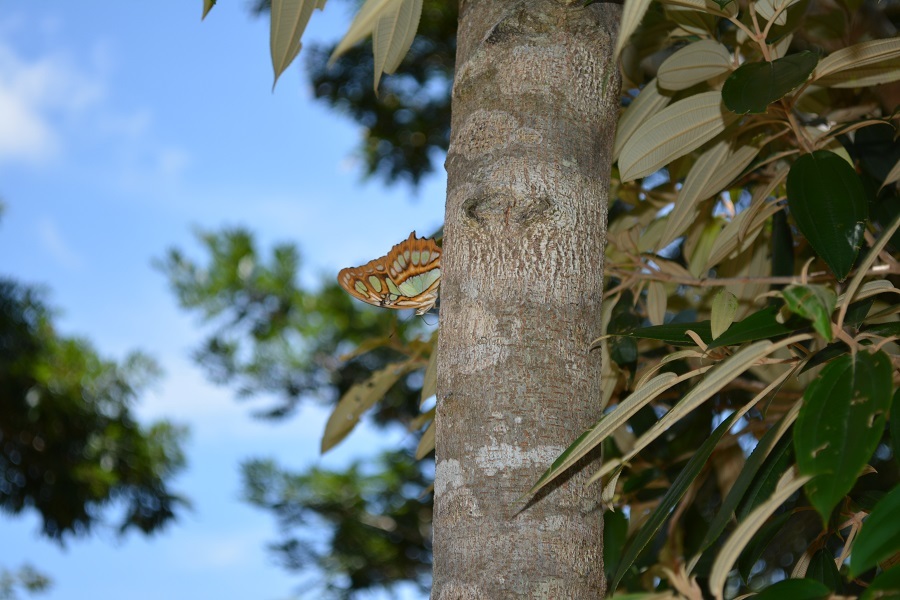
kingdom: Animalia
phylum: Arthropoda
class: Insecta
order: Lepidoptera
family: Nymphalidae
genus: Siproeta
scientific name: Siproeta stelenes
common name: Malachite
